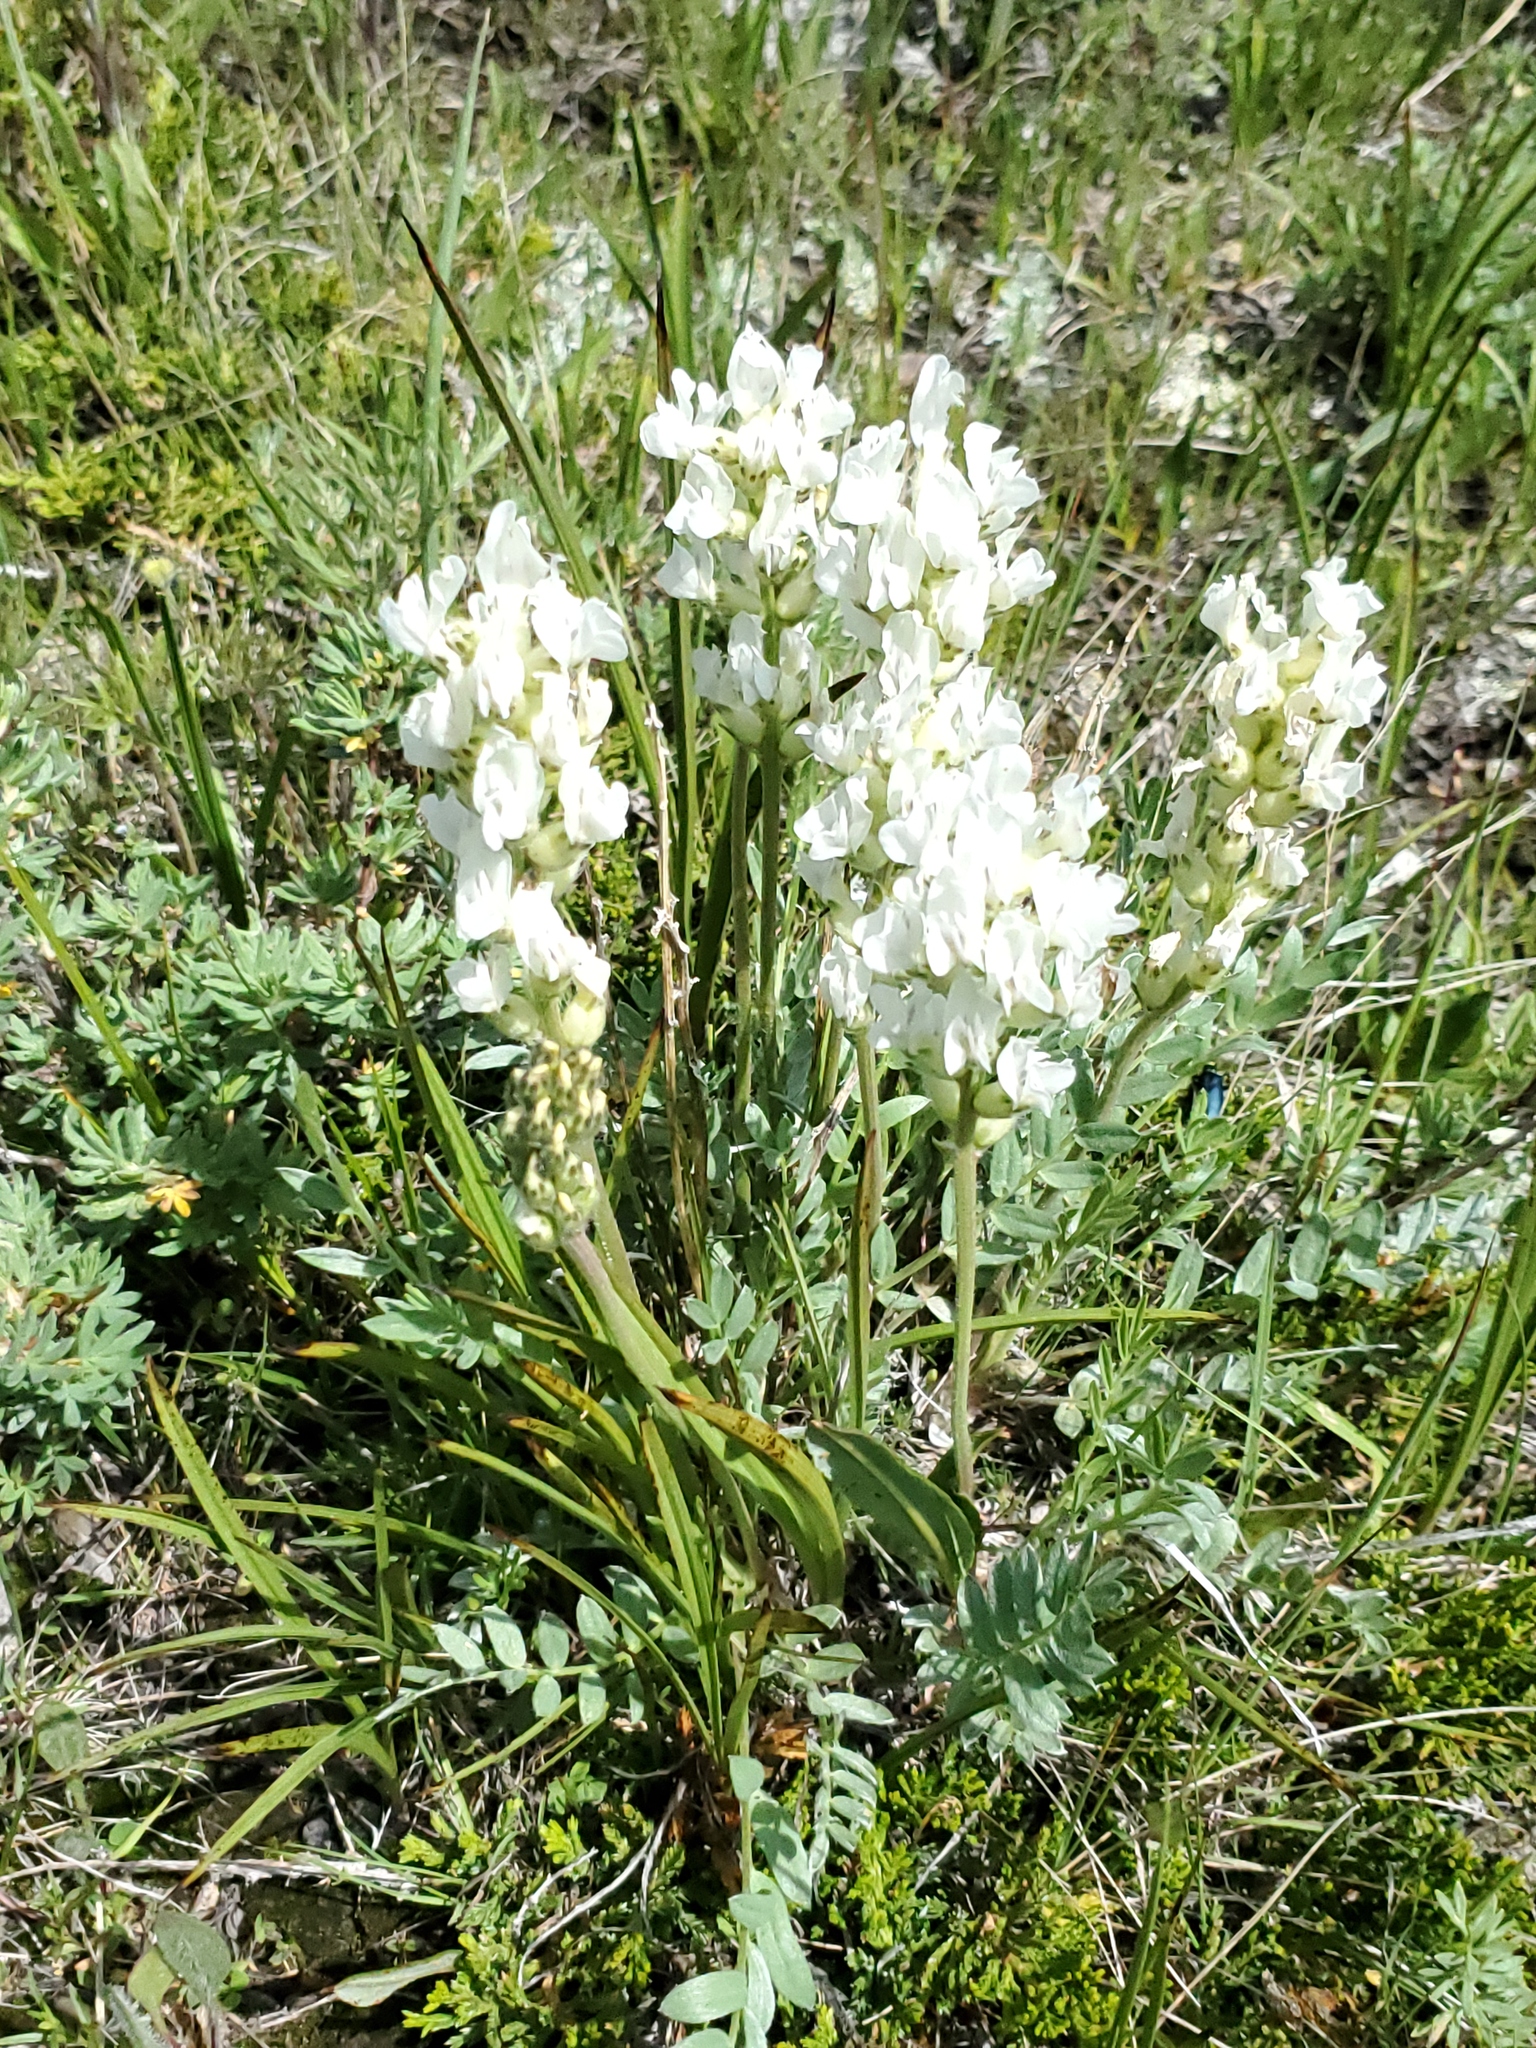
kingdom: Plantae
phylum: Tracheophyta
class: Magnoliopsida
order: Fabales
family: Fabaceae
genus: Oxytropis
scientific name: Oxytropis sericea
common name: Silky locoweed
